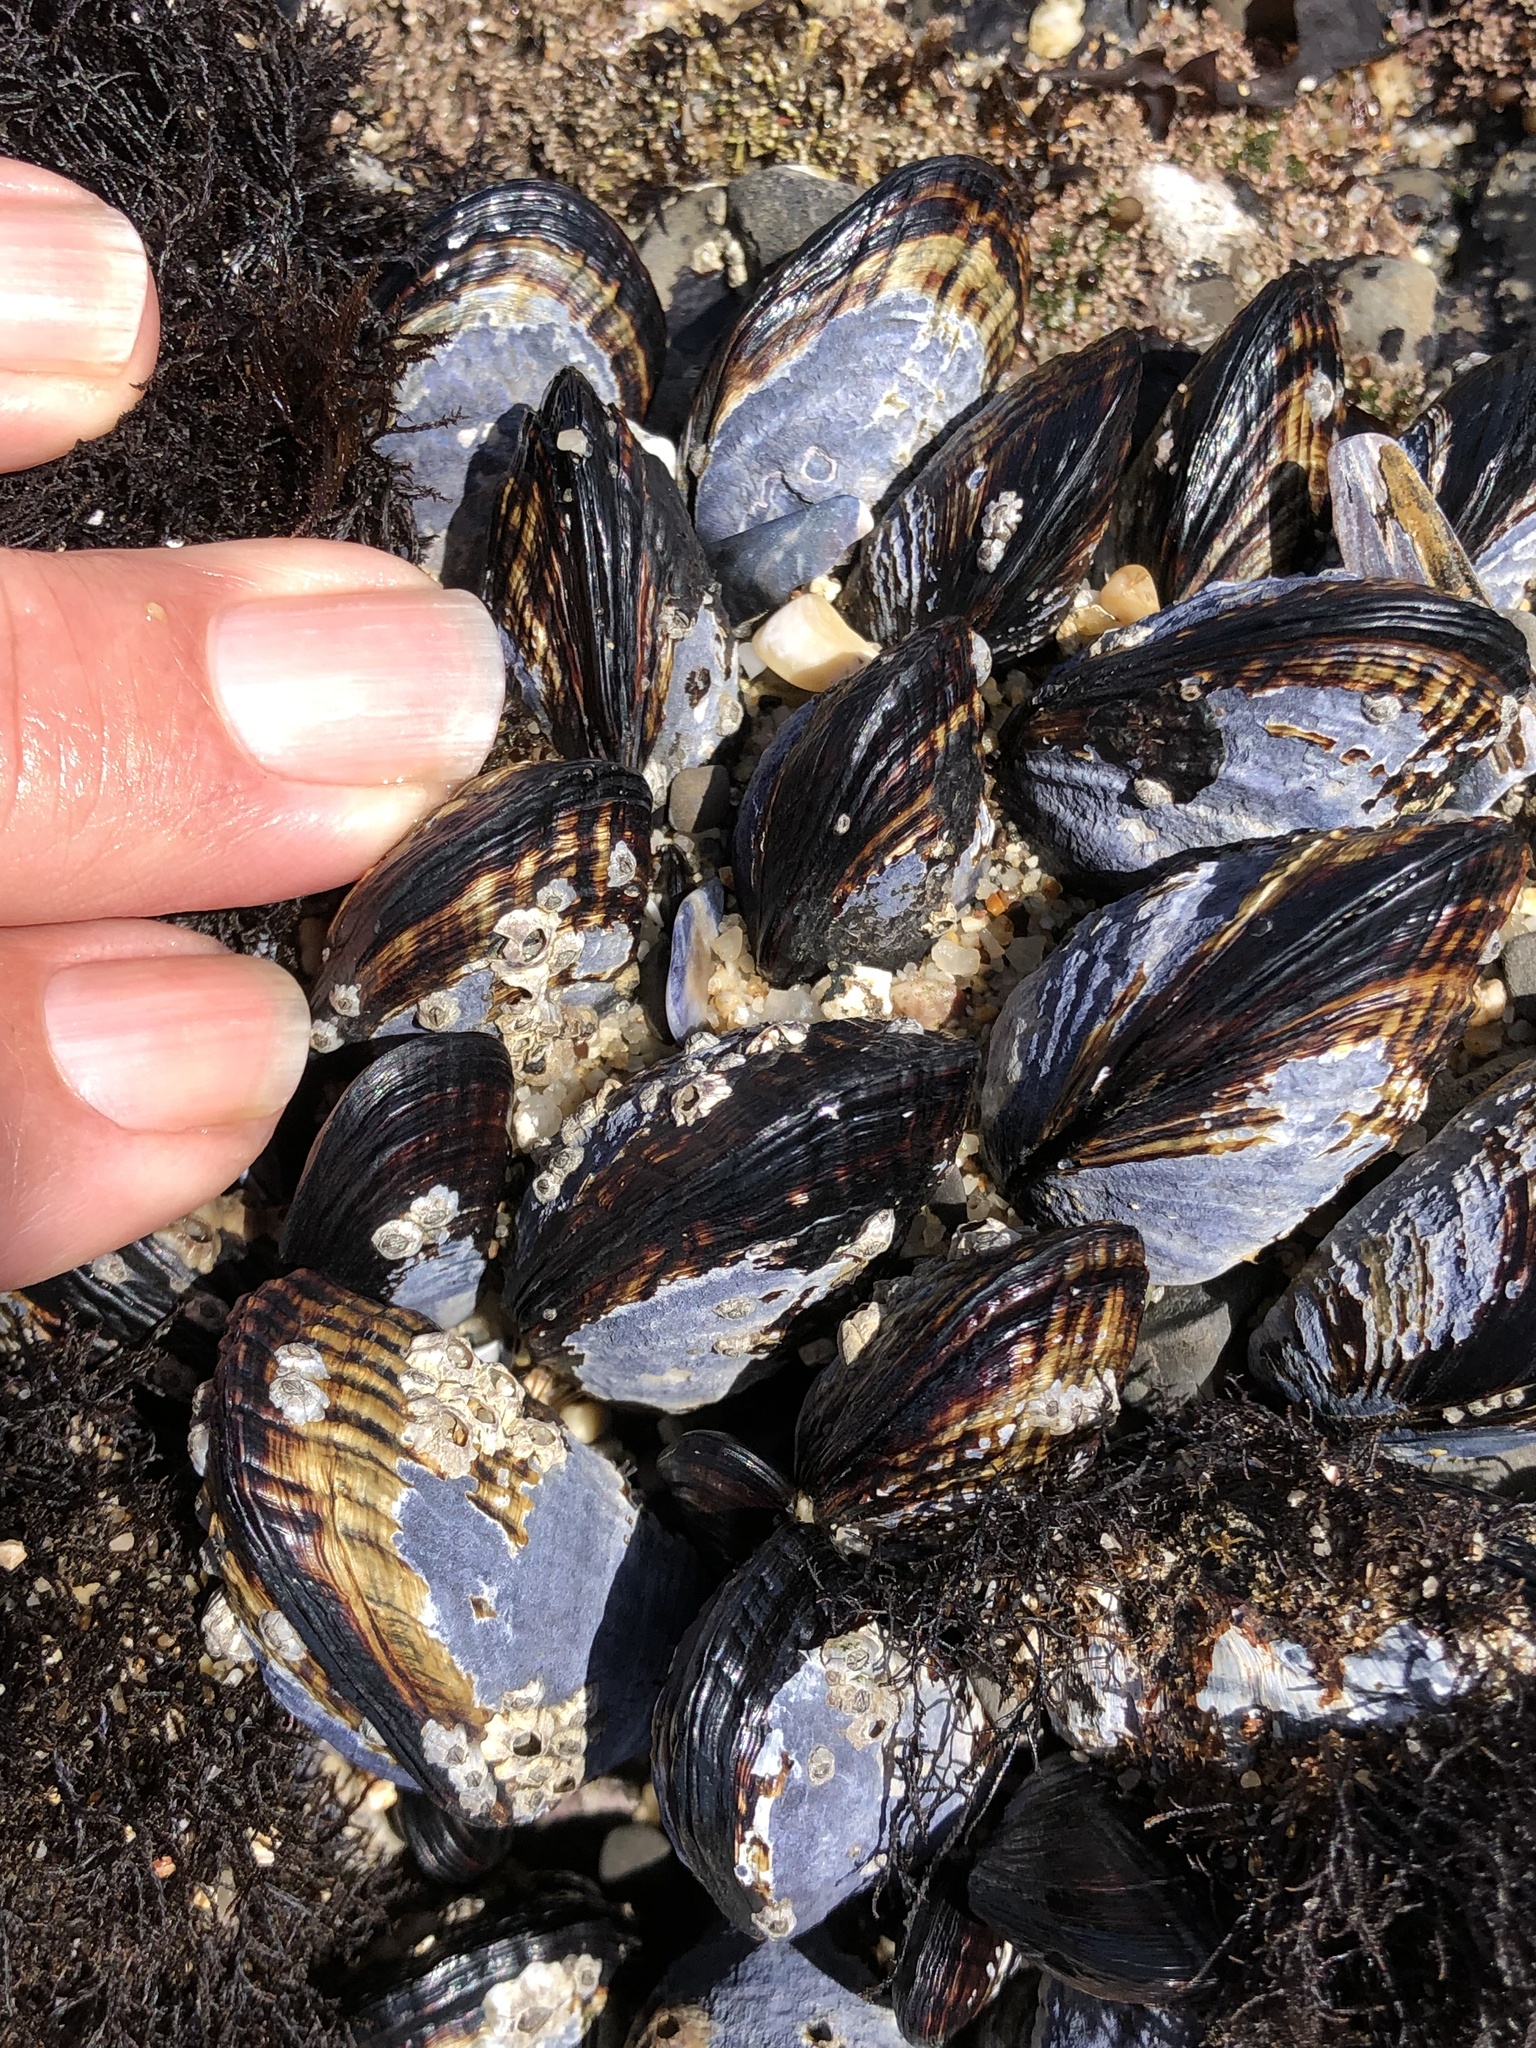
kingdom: Animalia
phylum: Mollusca
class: Bivalvia
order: Mytilida
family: Mytilidae
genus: Mytilus
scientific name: Mytilus californianus
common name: California mussel
